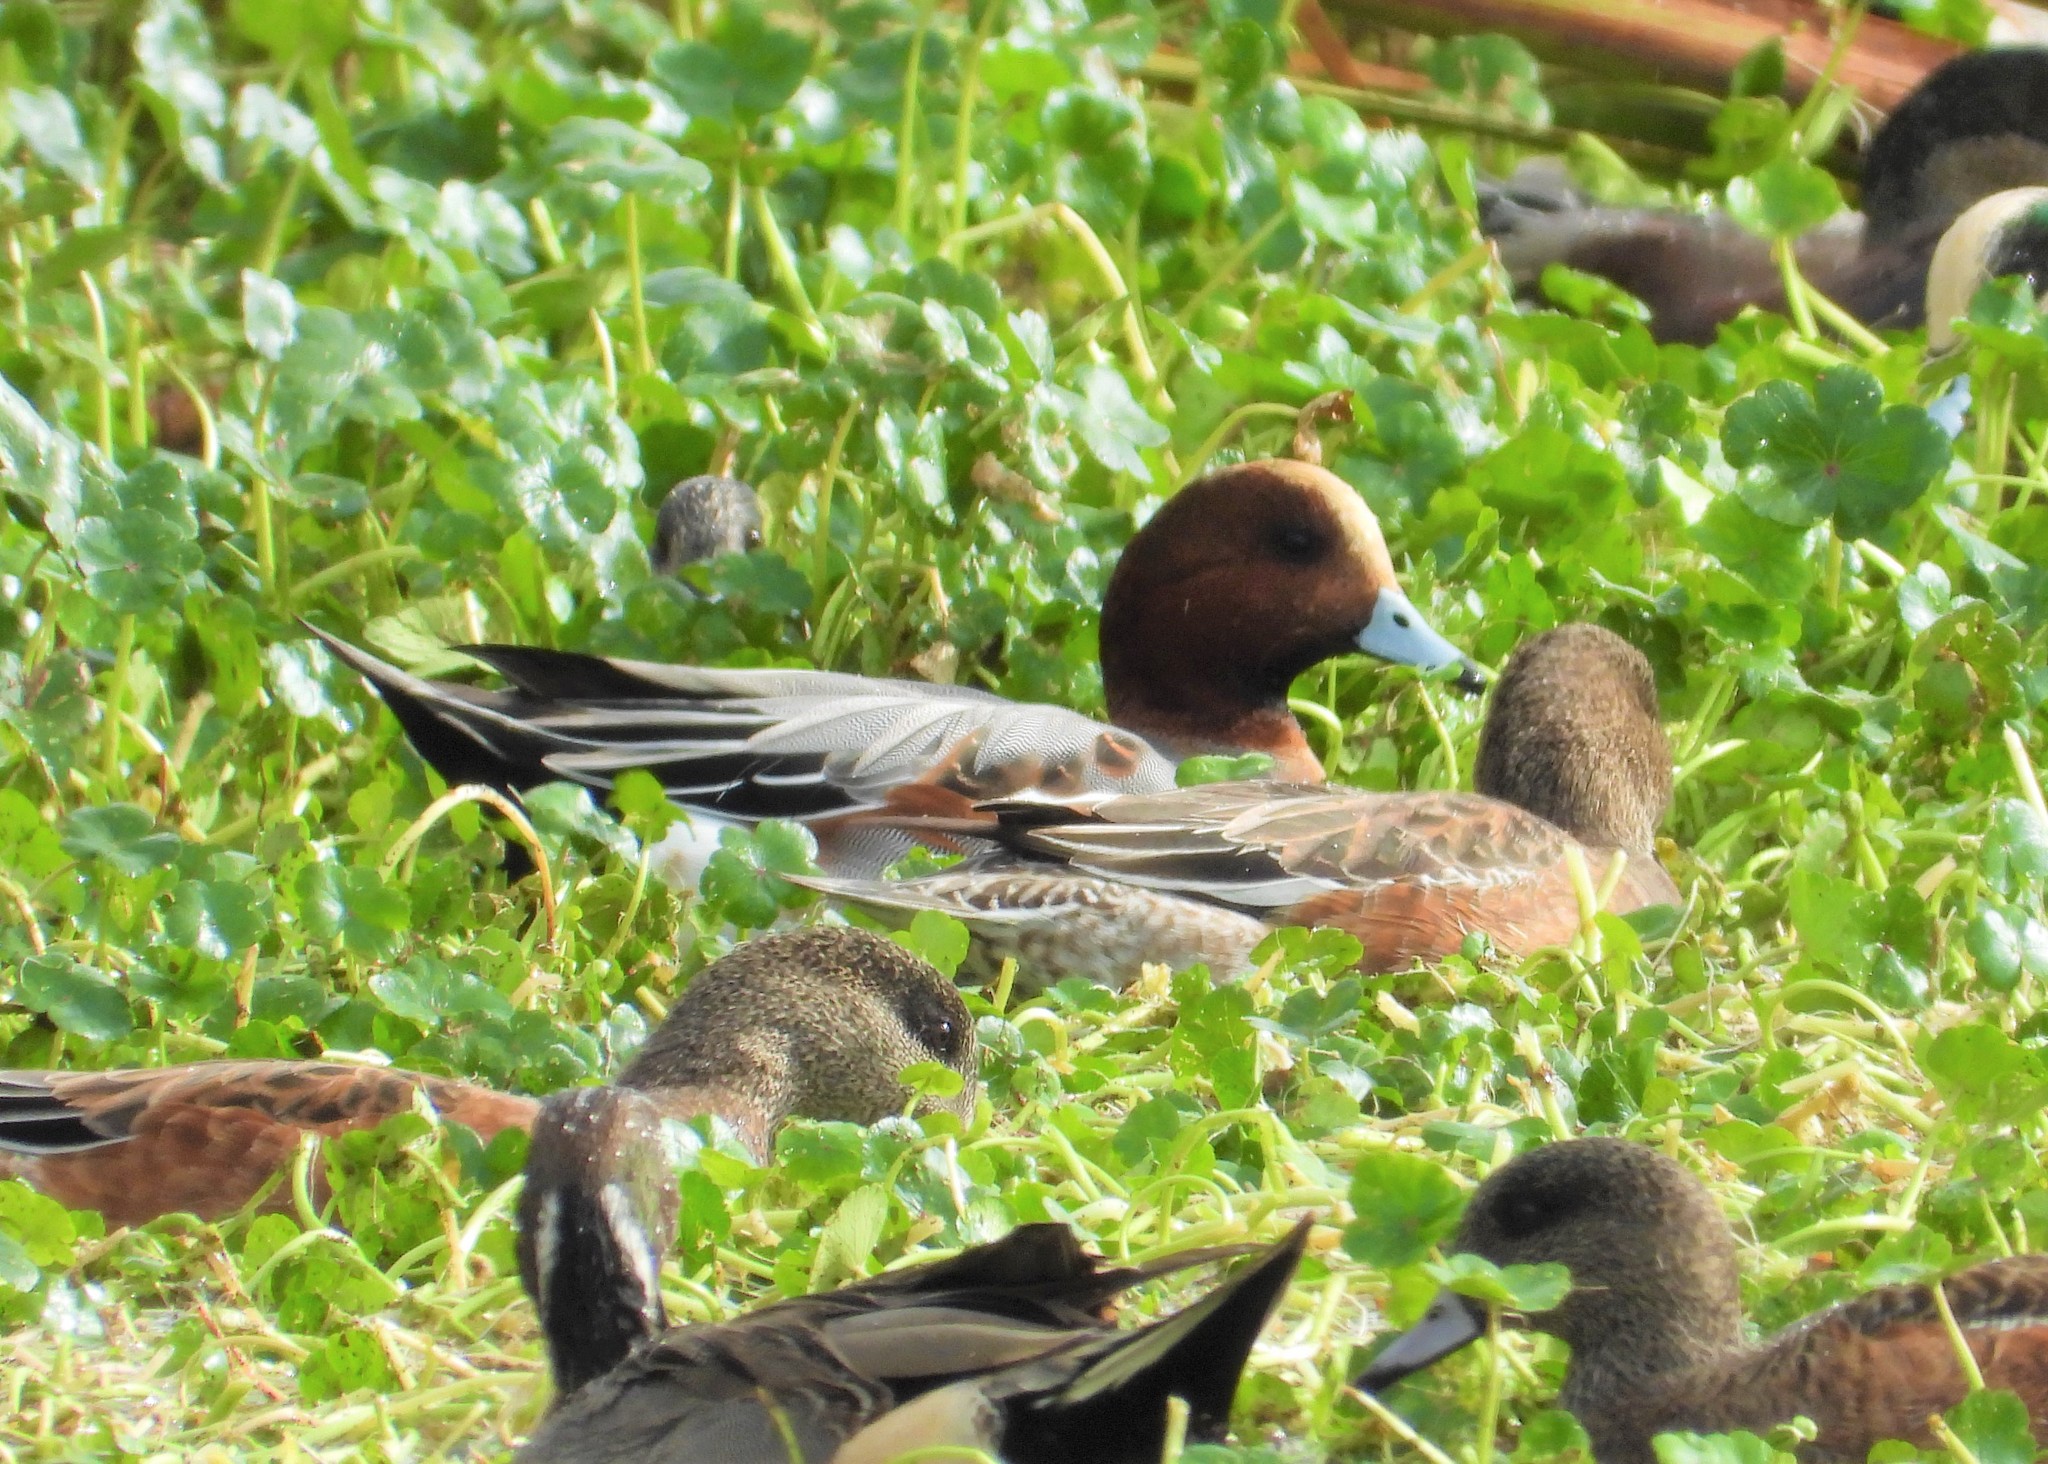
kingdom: Animalia
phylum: Chordata
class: Aves
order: Anseriformes
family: Anatidae
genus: Mareca
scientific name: Mareca penelope
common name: Eurasian wigeon
